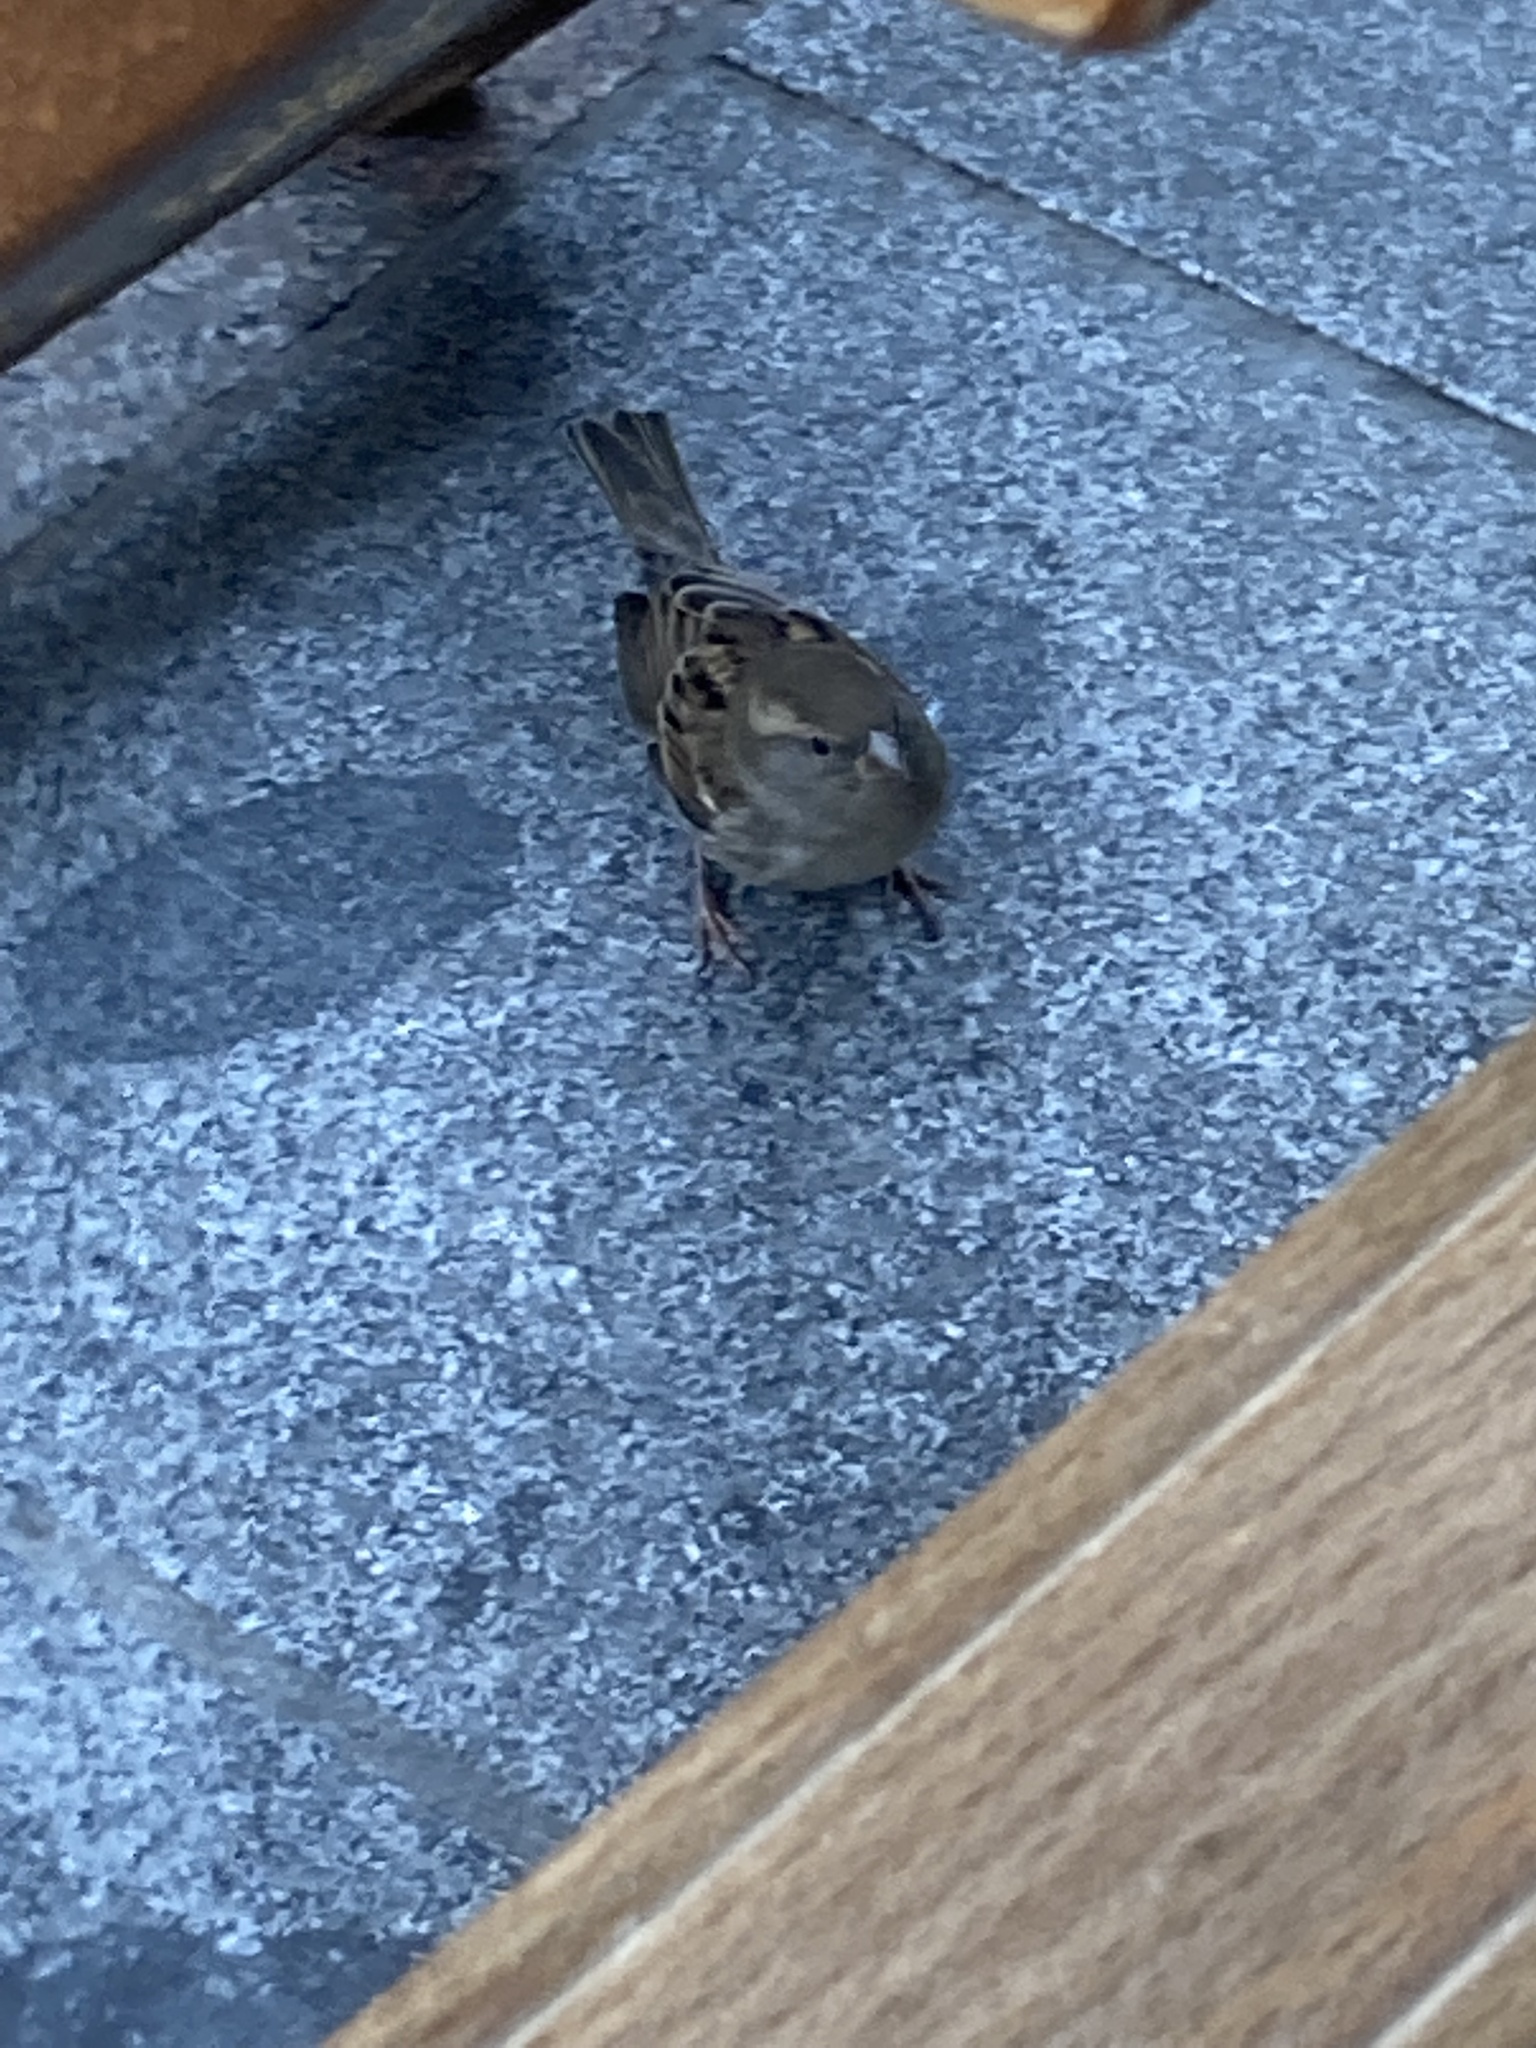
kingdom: Animalia
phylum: Chordata
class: Aves
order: Passeriformes
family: Passeridae
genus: Passer
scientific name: Passer domesticus
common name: House sparrow
